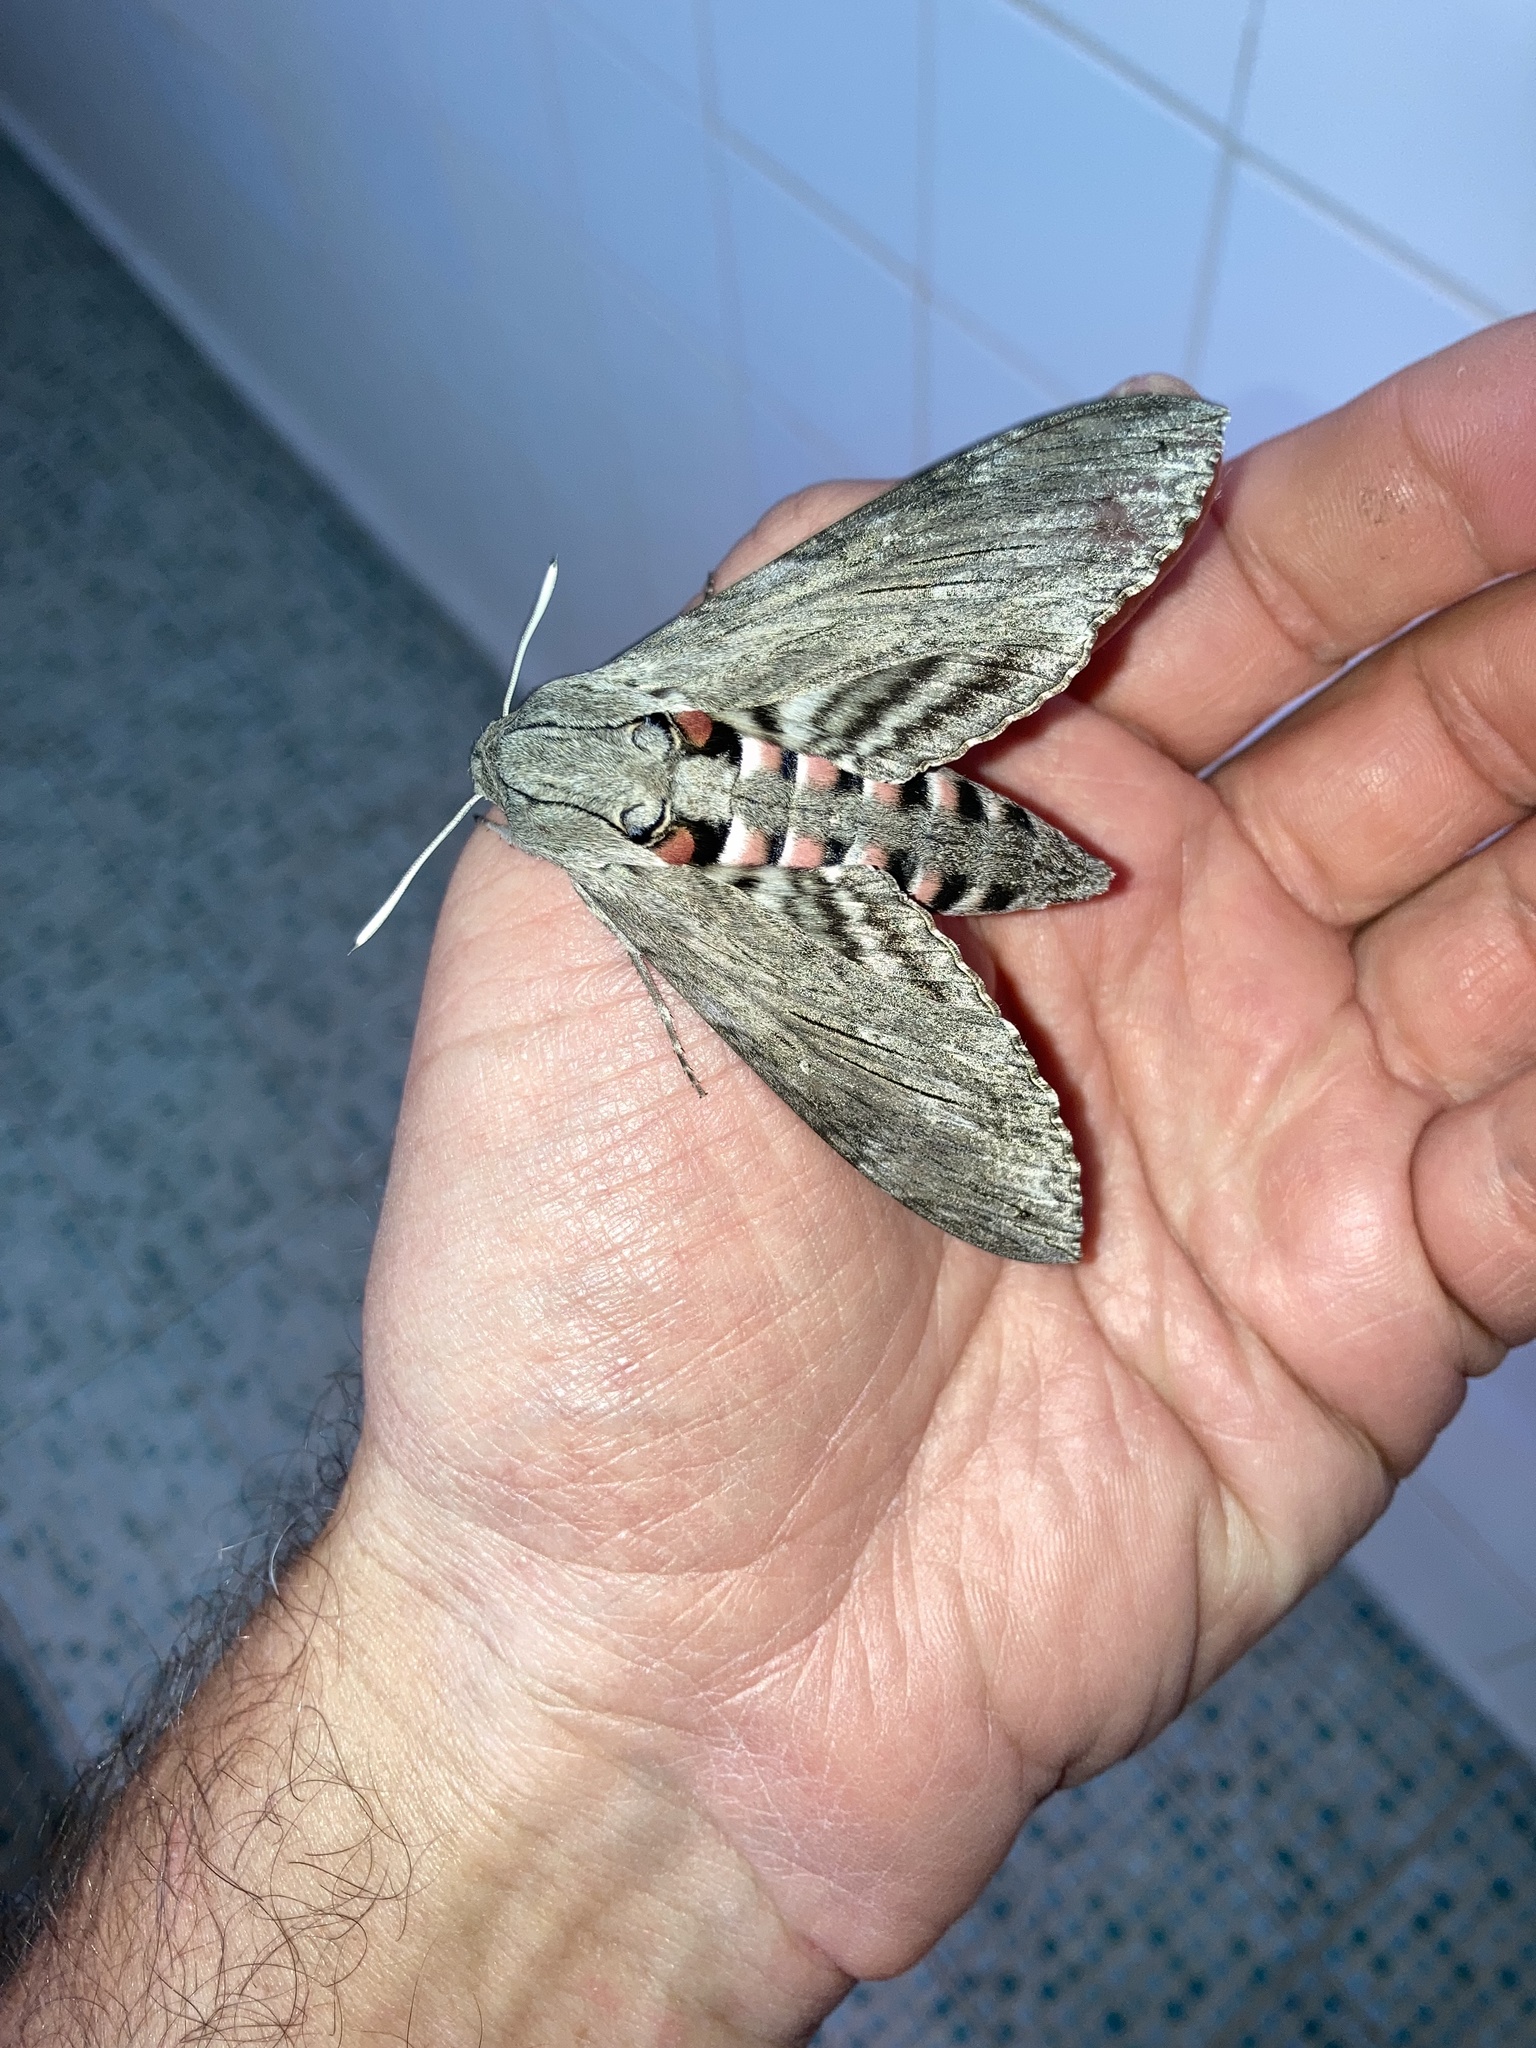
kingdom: Animalia
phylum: Arthropoda
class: Insecta
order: Lepidoptera
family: Sphingidae
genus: Agrius
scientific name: Agrius convolvuli
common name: Convolvulus hawkmoth
